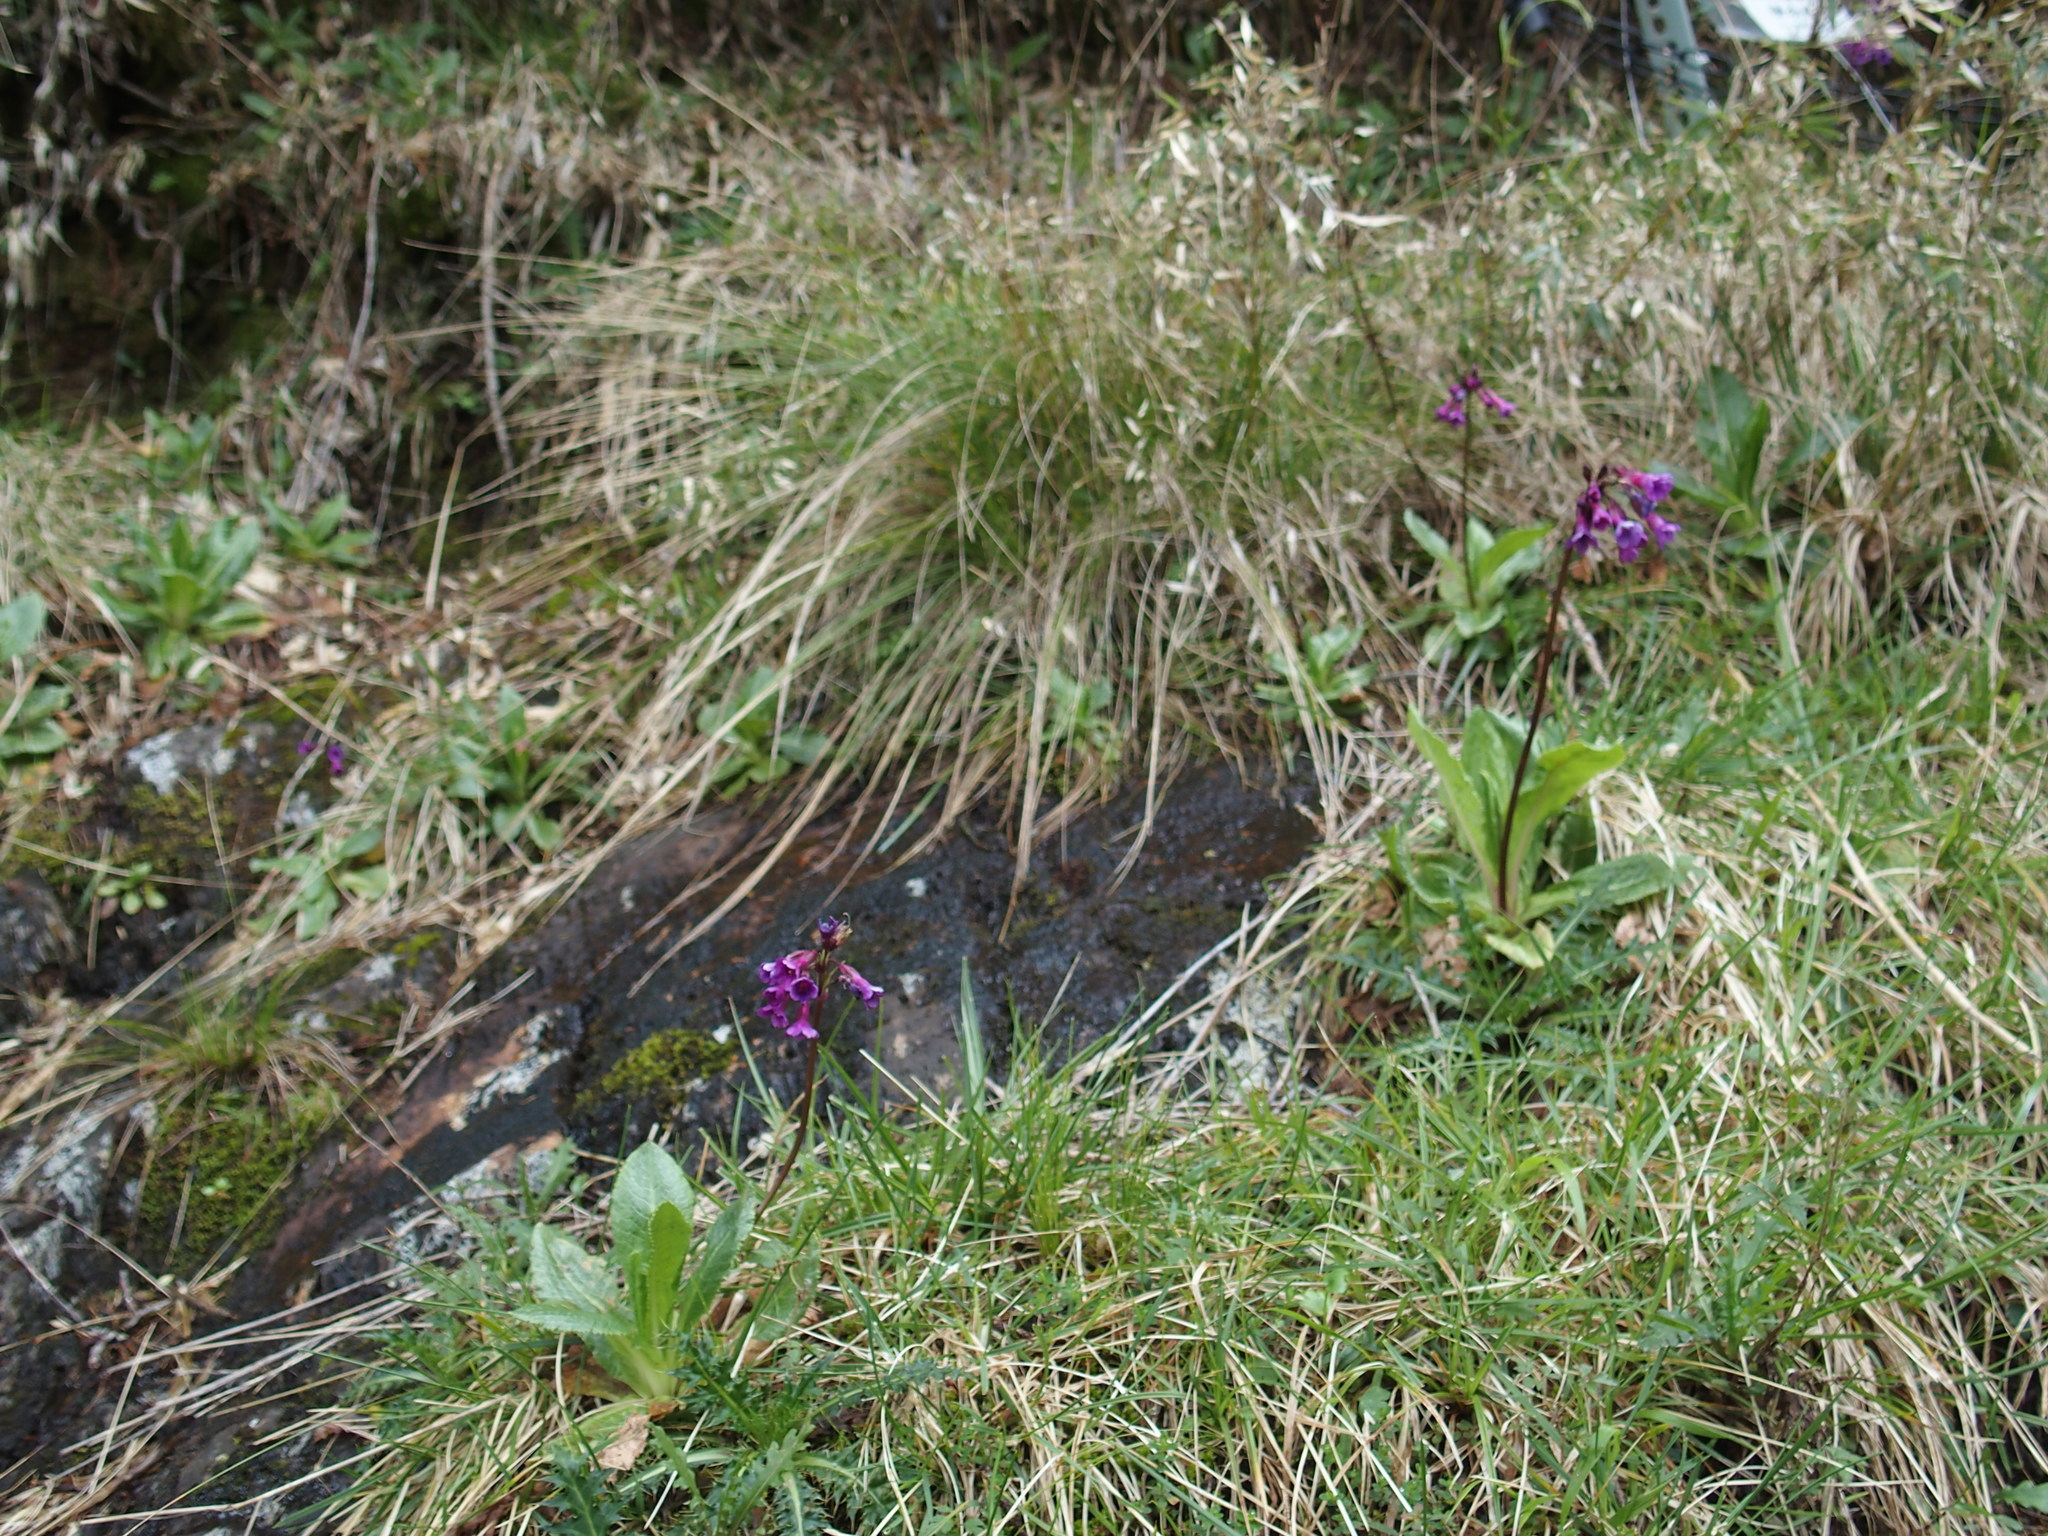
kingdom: Plantae
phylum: Tracheophyta
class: Magnoliopsida
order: Ericales
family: Primulaceae
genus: Primula
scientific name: Primula miyabeana
